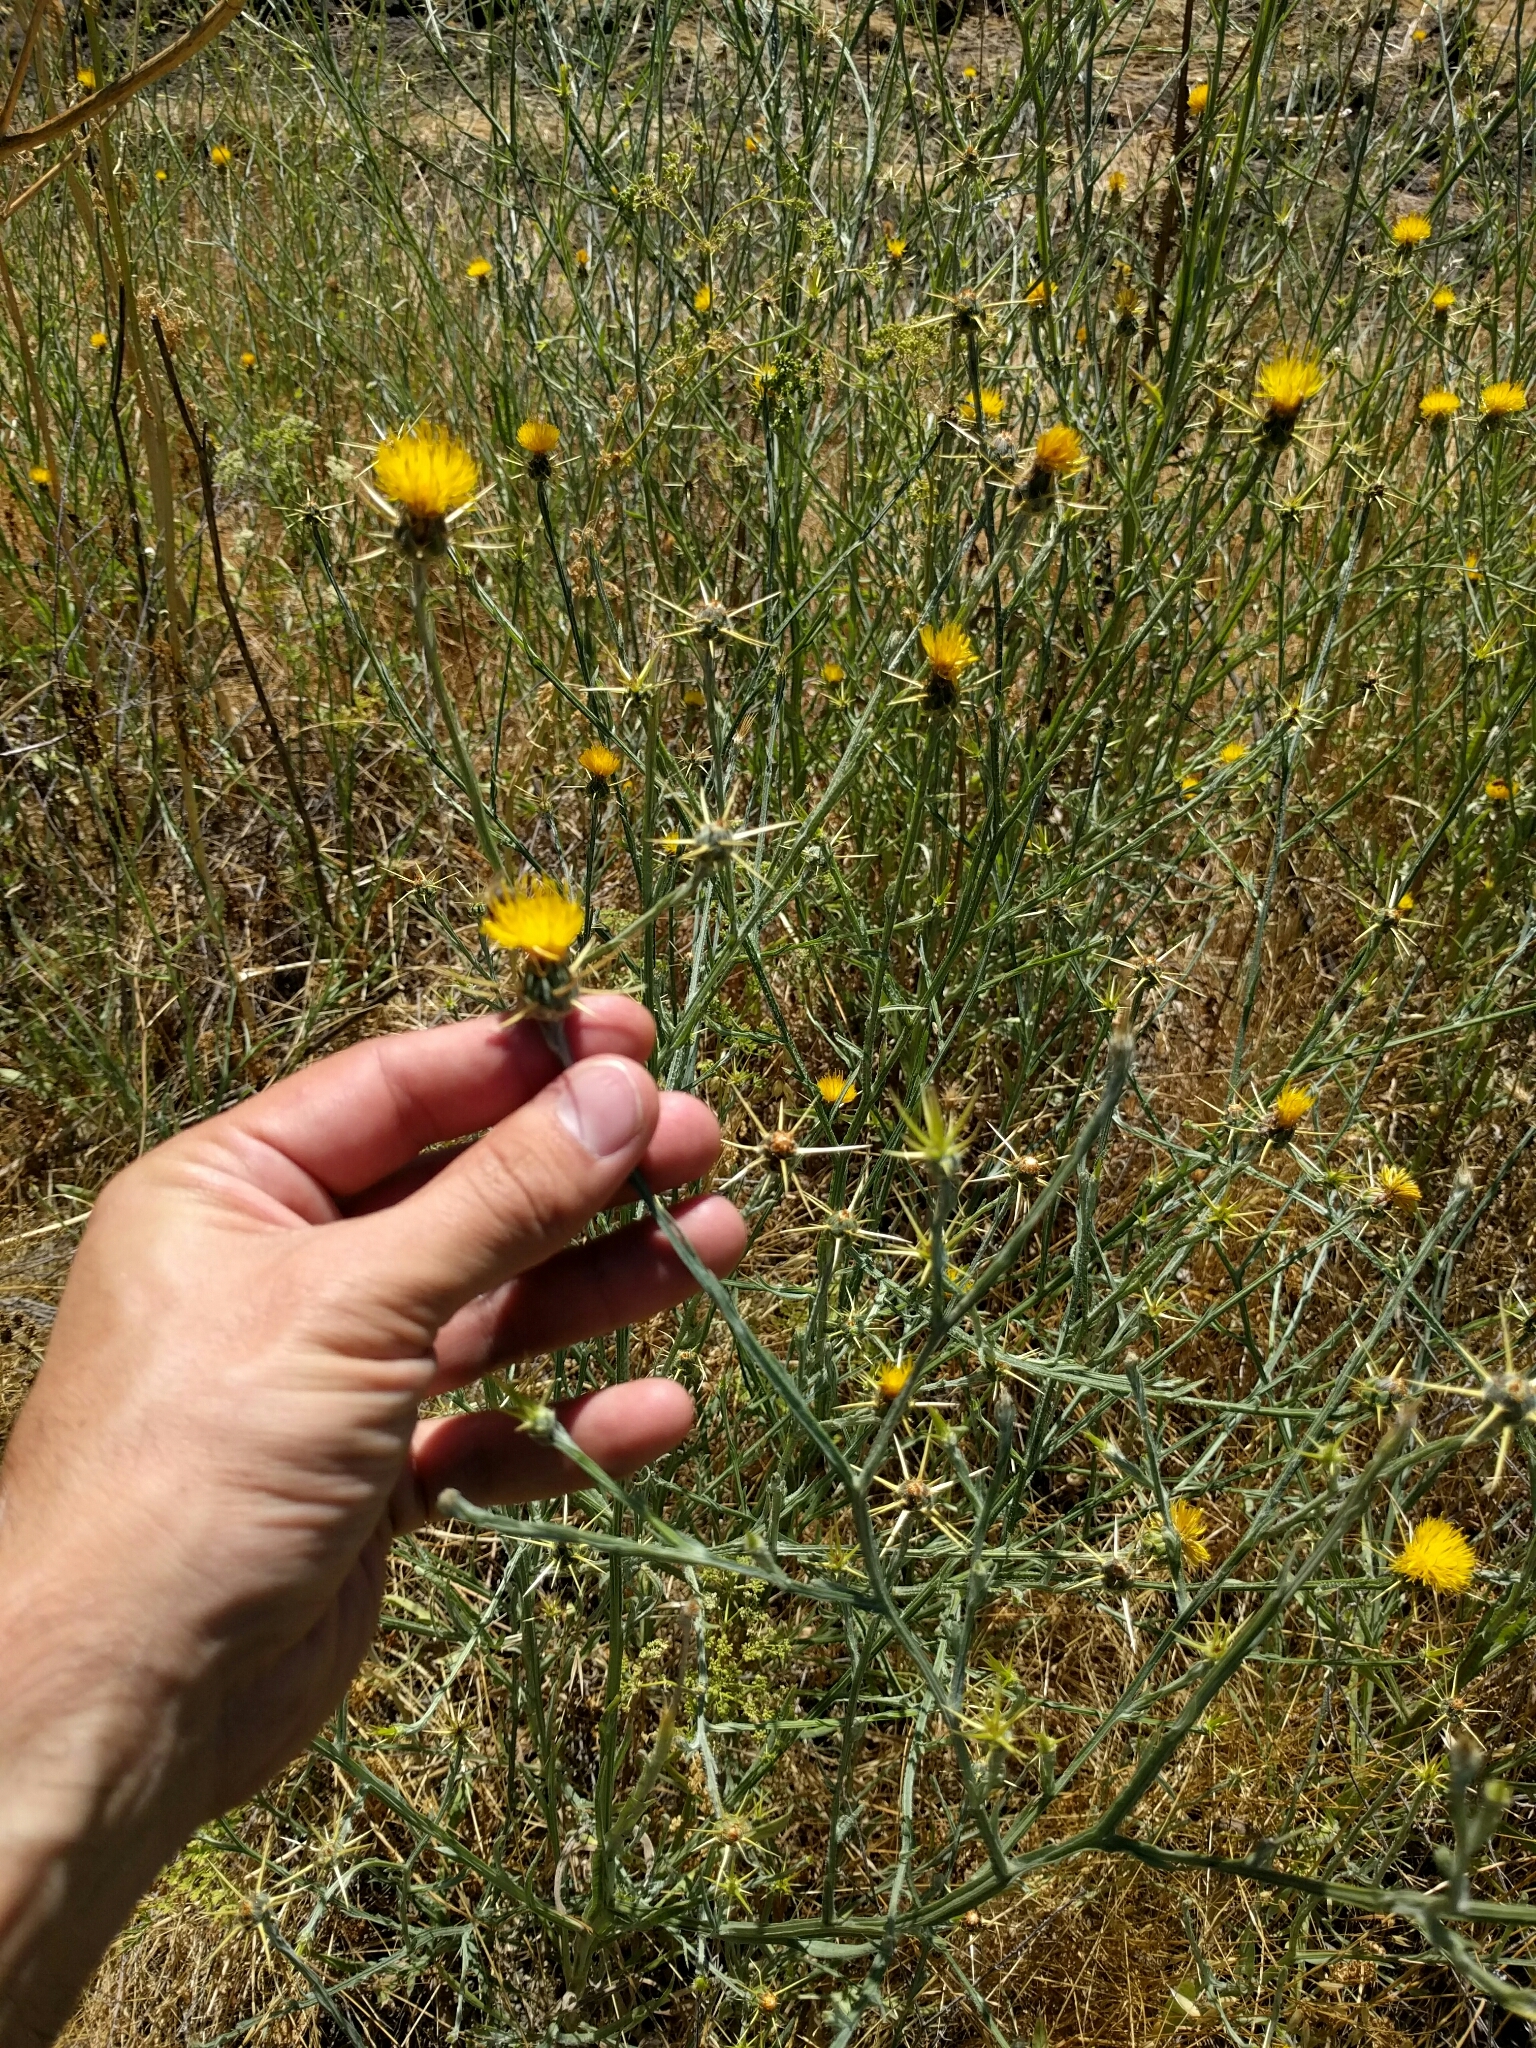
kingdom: Plantae
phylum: Tracheophyta
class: Magnoliopsida
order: Asterales
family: Asteraceae
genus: Centaurea
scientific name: Centaurea solstitialis
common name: Yellow star-thistle
